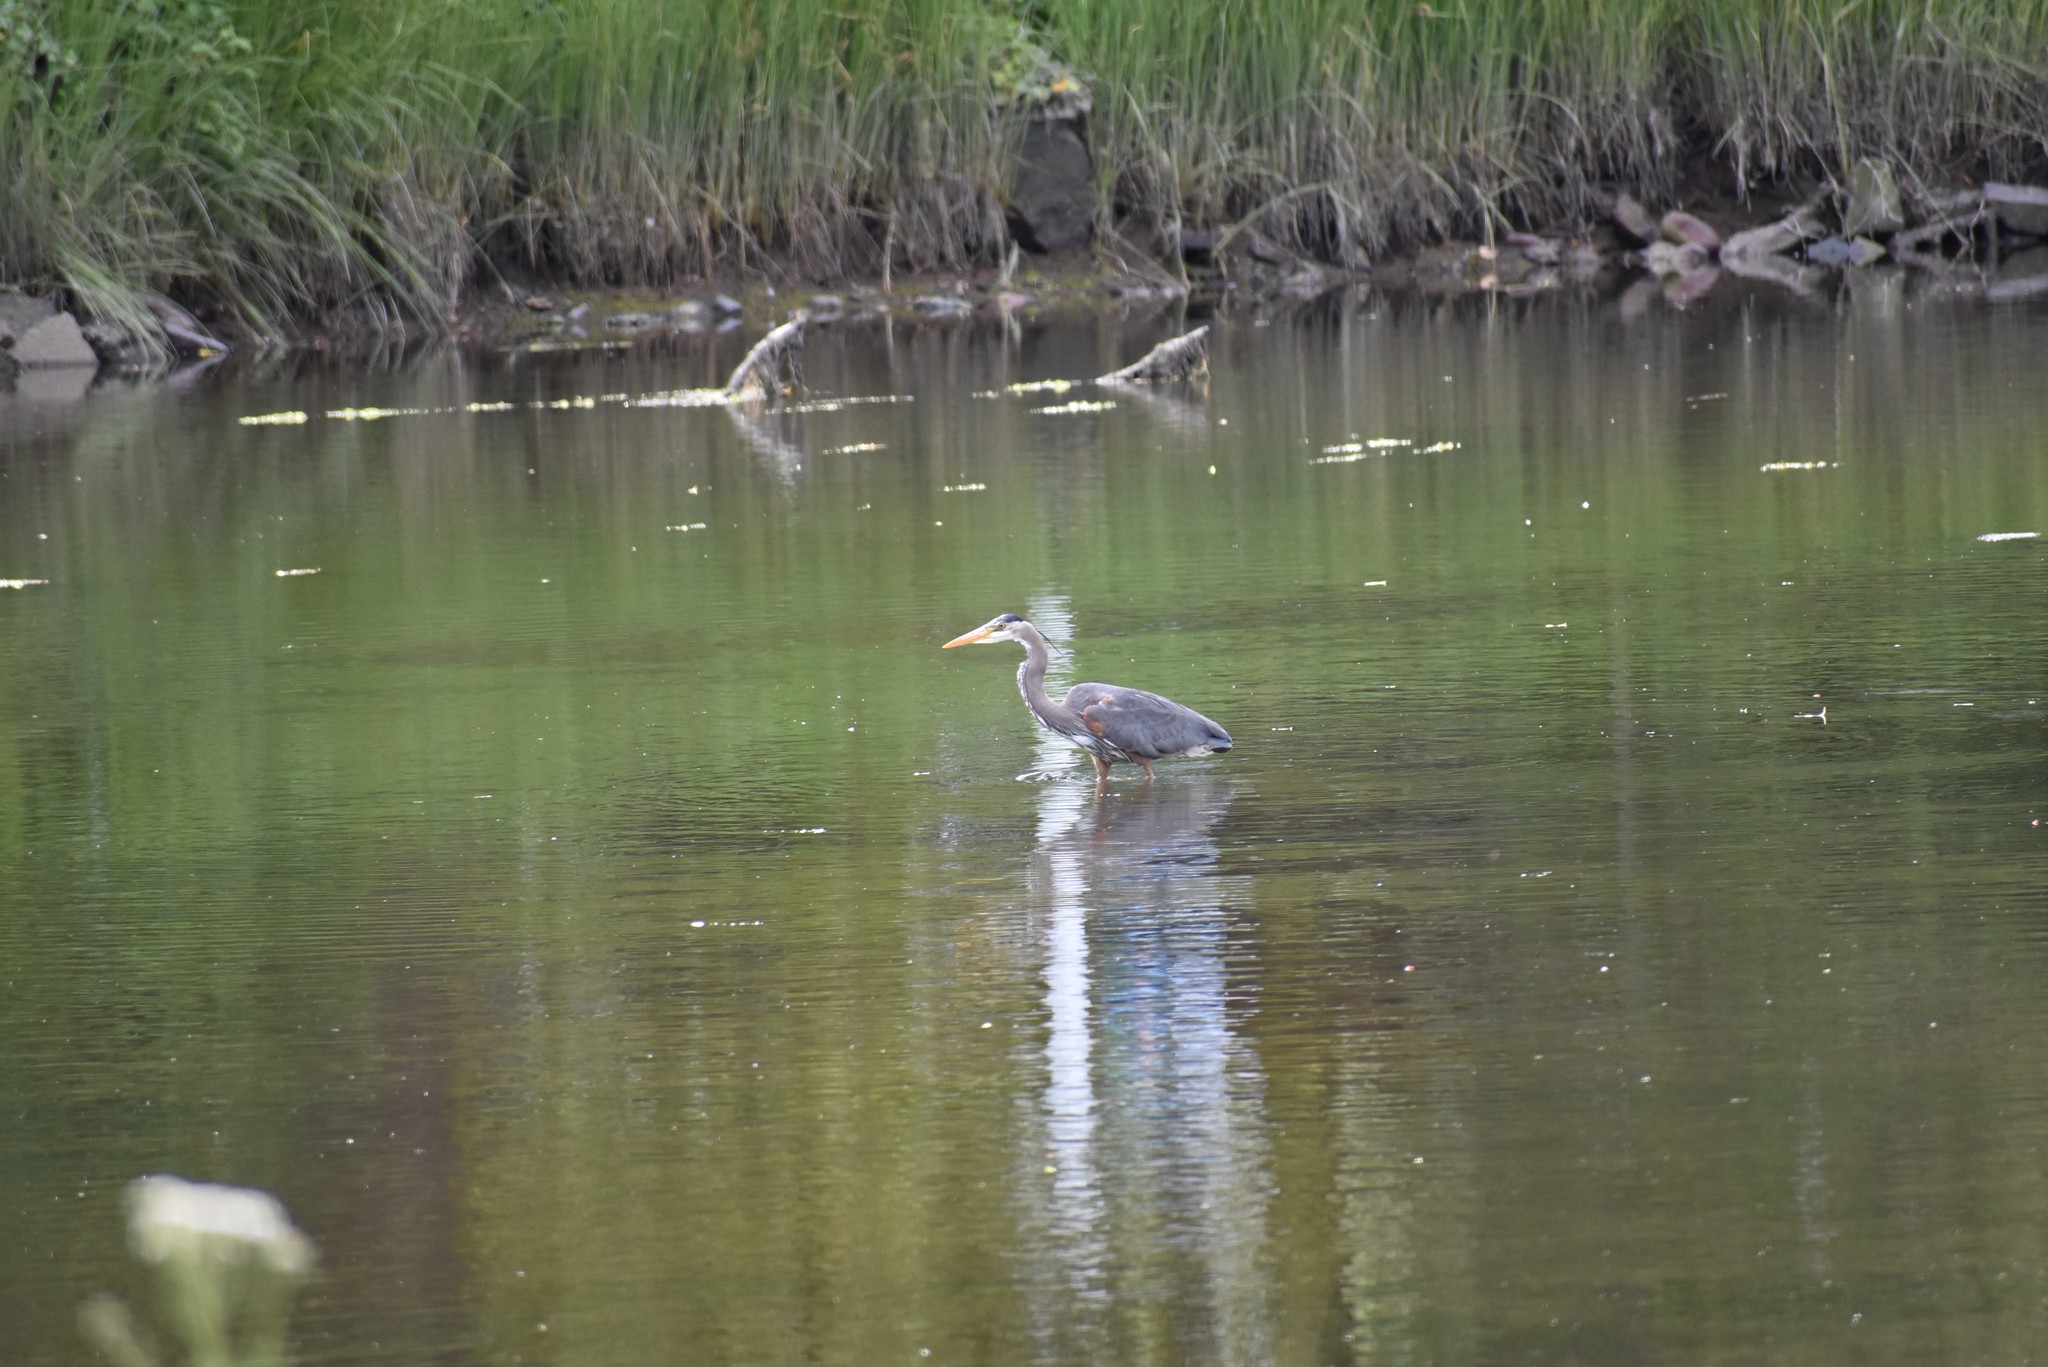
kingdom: Animalia
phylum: Chordata
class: Aves
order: Pelecaniformes
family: Ardeidae
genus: Ardea
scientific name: Ardea herodias
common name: Great blue heron
